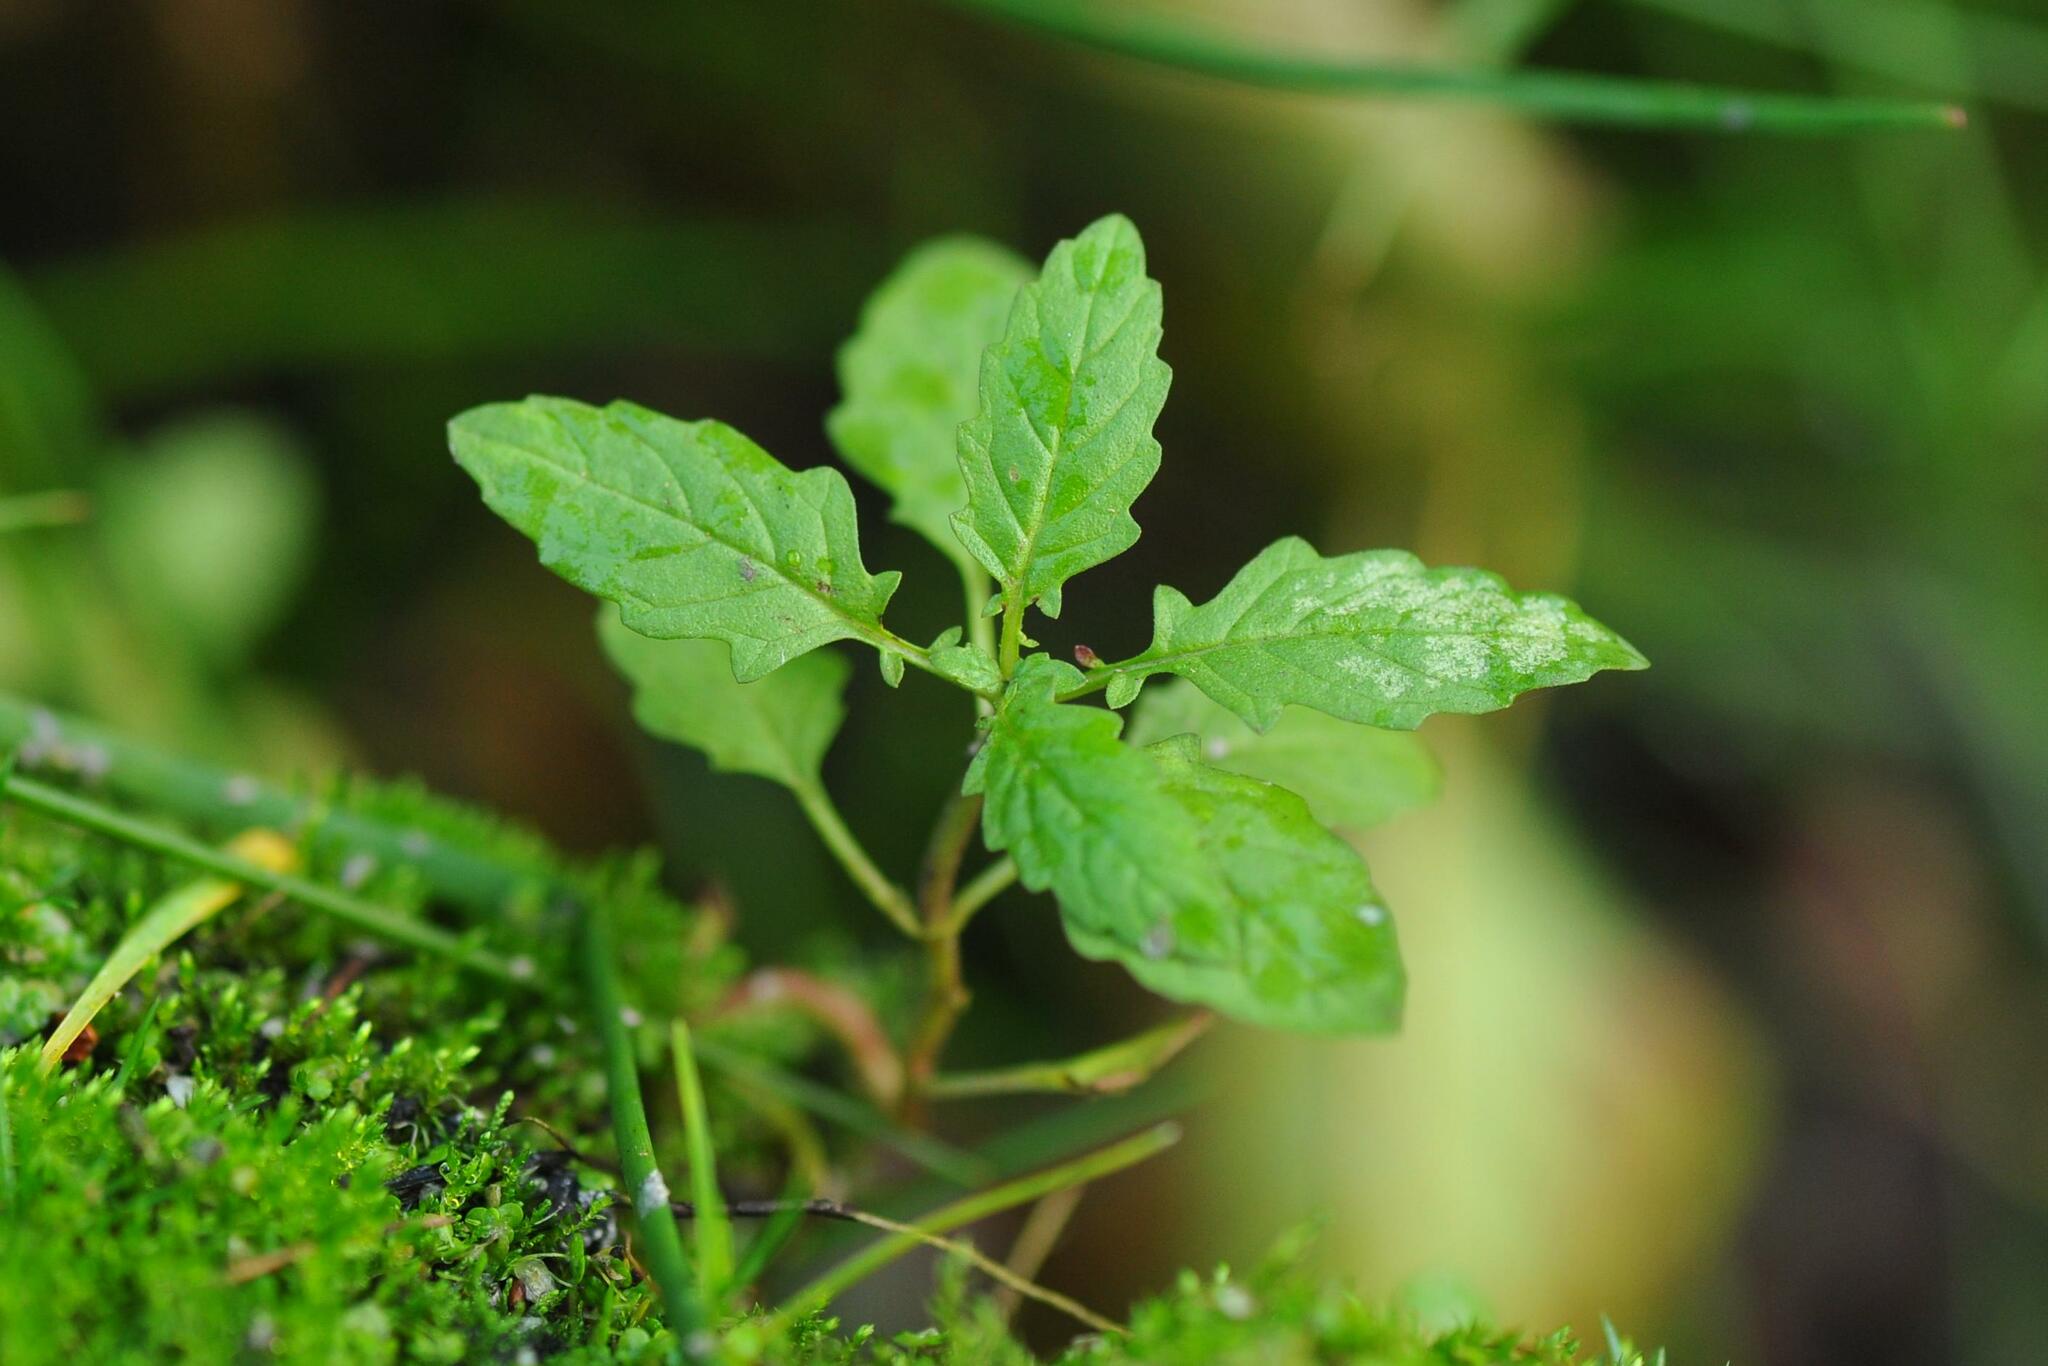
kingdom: Plantae
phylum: Tracheophyta
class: Magnoliopsida
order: Lamiales
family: Lamiaceae
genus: Lycopus
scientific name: Lycopus europaeus
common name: European bugleweed
